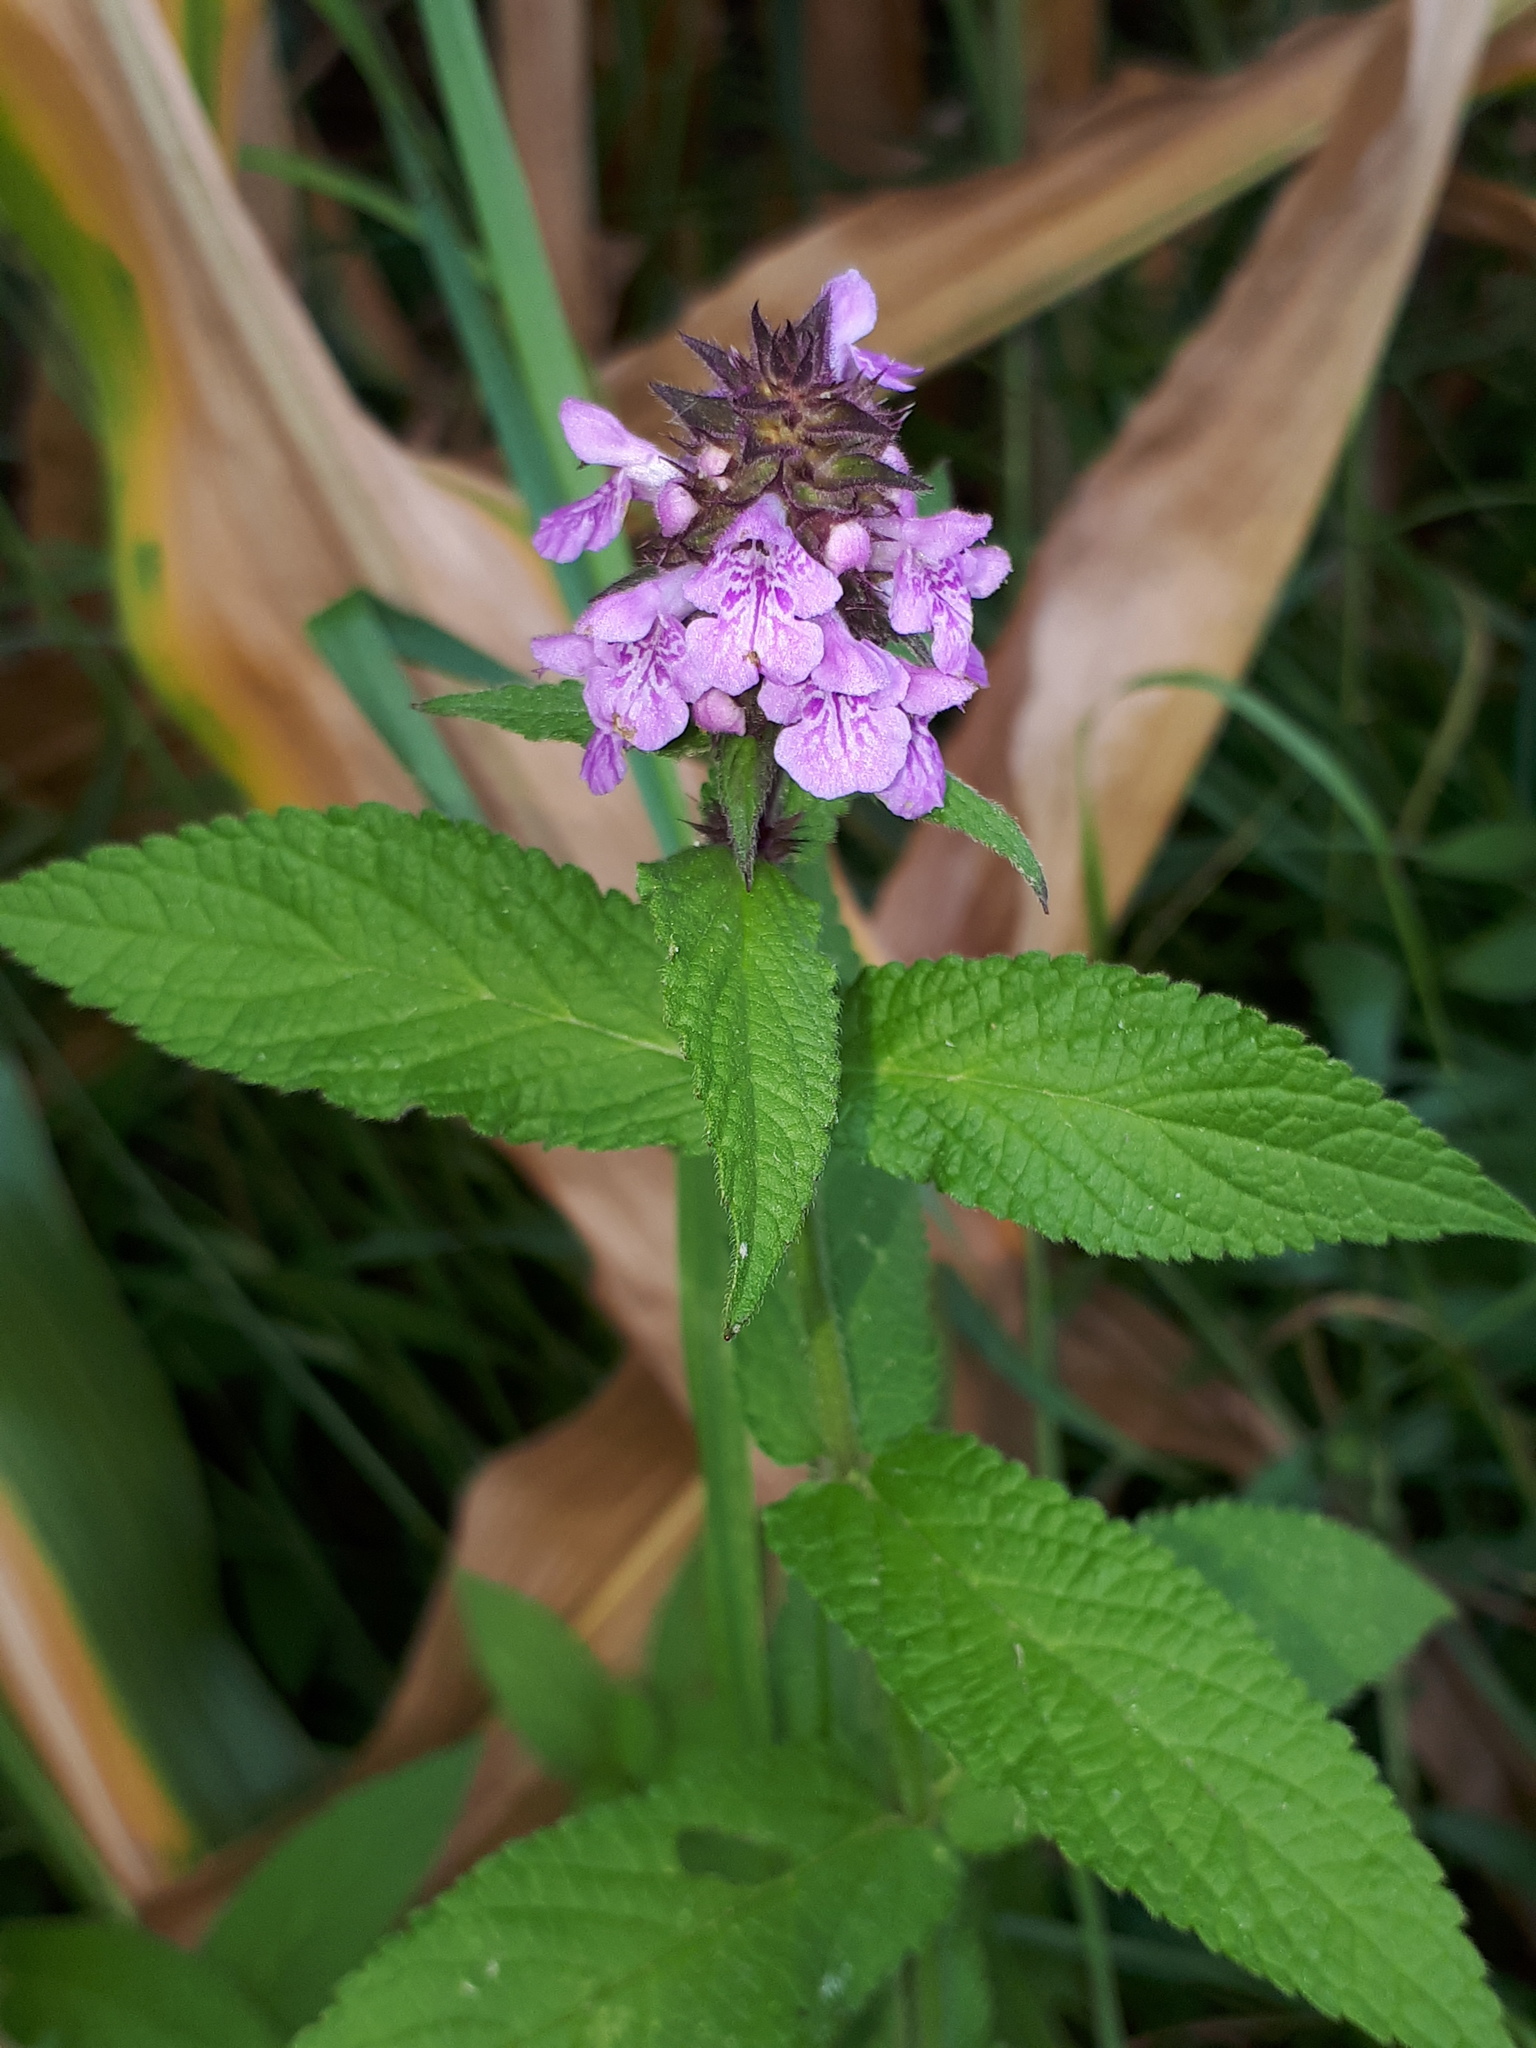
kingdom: Plantae
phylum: Tracheophyta
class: Magnoliopsida
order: Lamiales
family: Lamiaceae
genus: Stachys
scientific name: Stachys palustris
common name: Marsh woundwort
